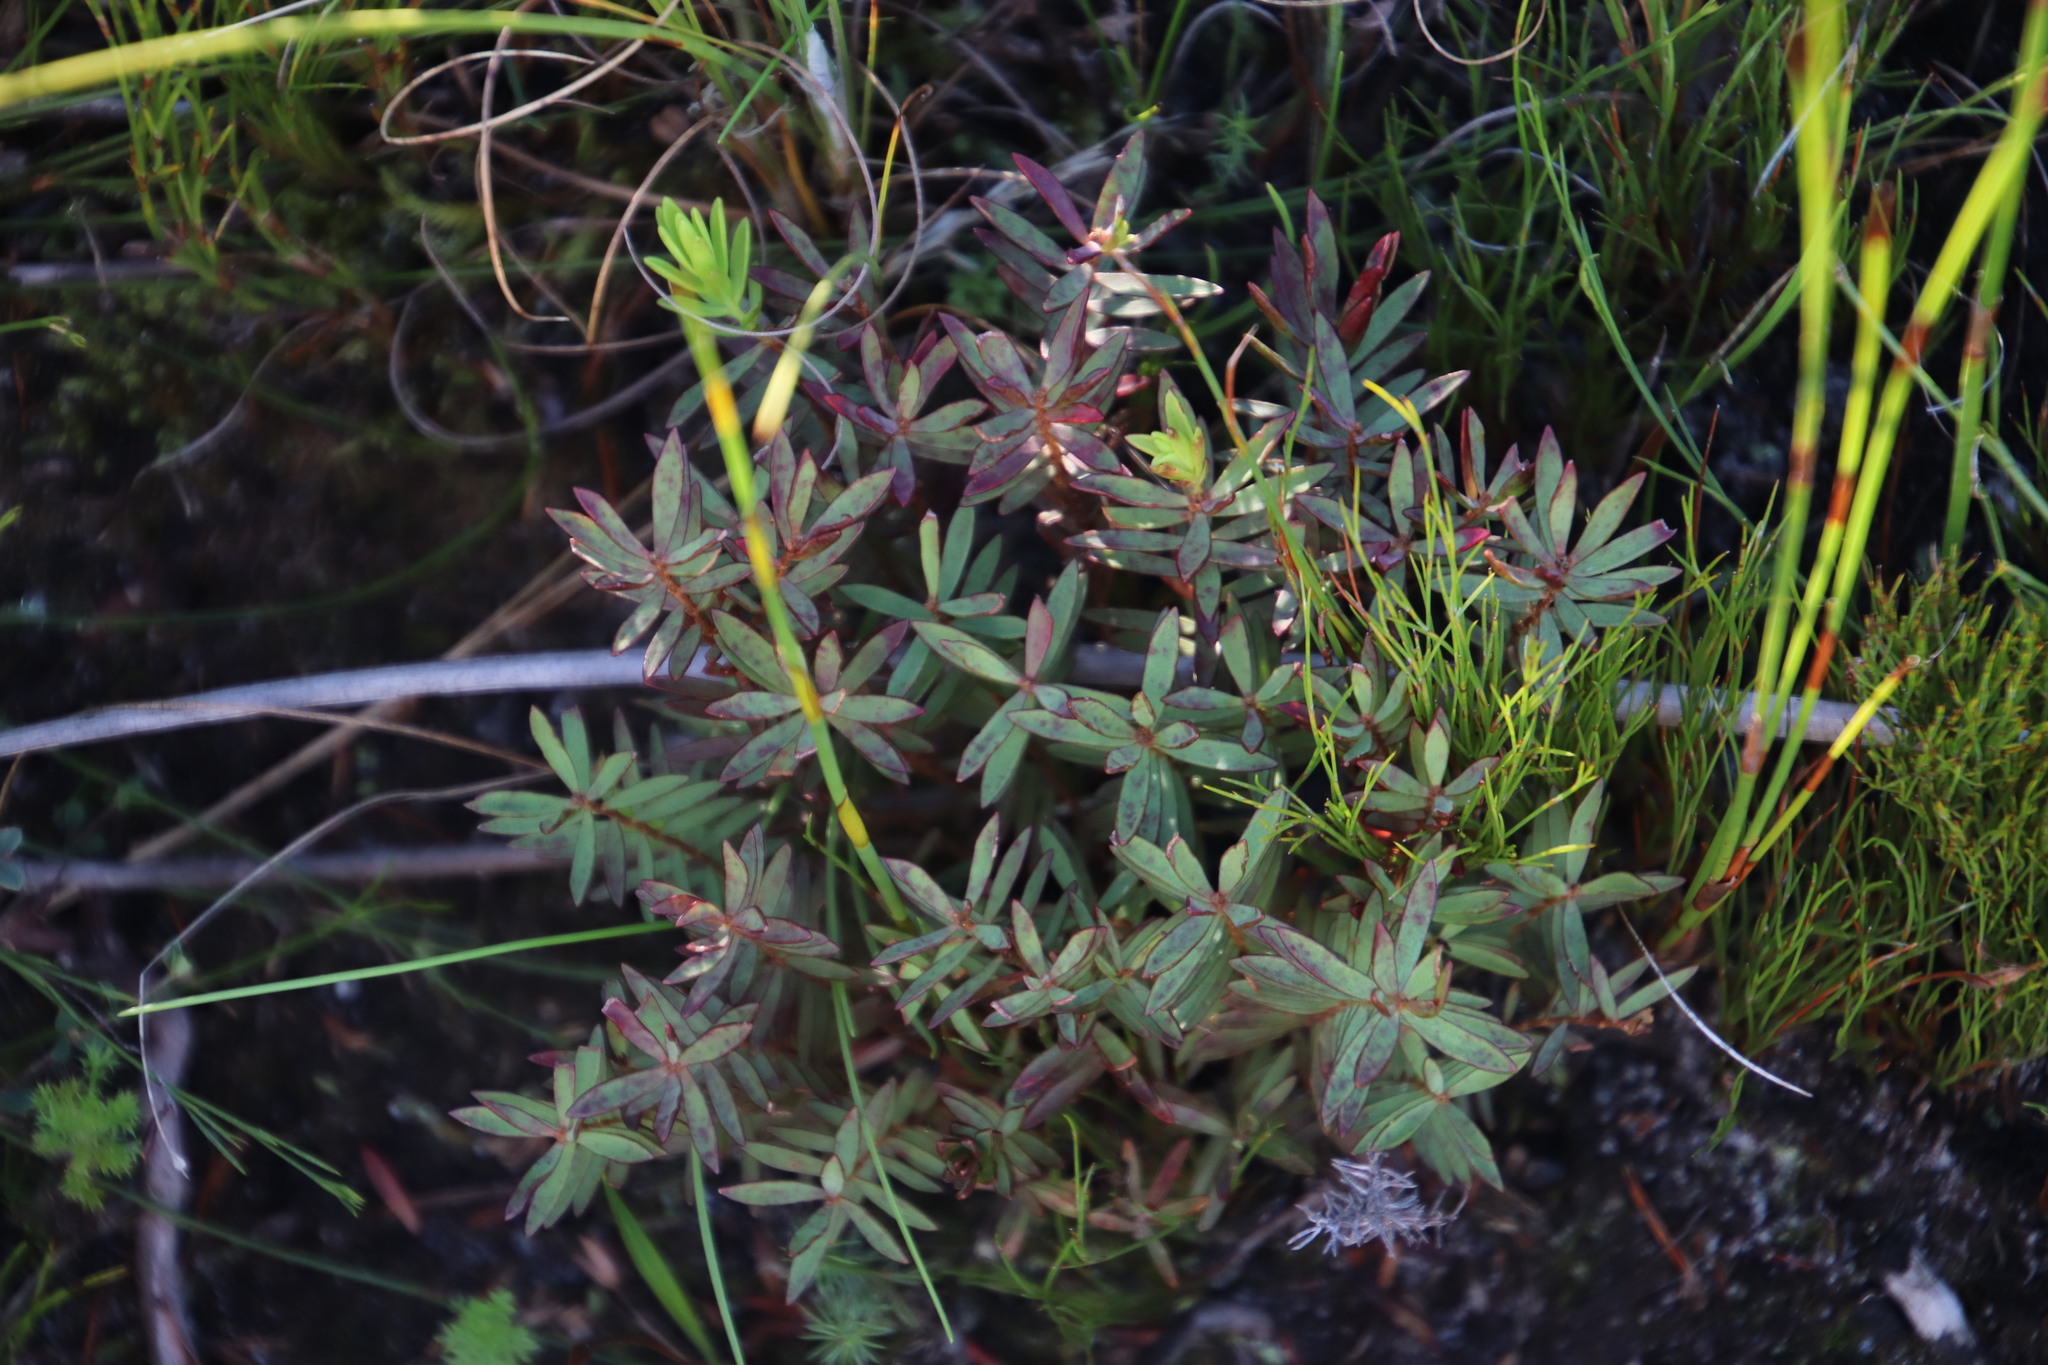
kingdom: Plantae
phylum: Tracheophyta
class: Magnoliopsida
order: Malvales
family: Thymelaeaceae
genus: Gnidia
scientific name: Gnidia juniperifolia
